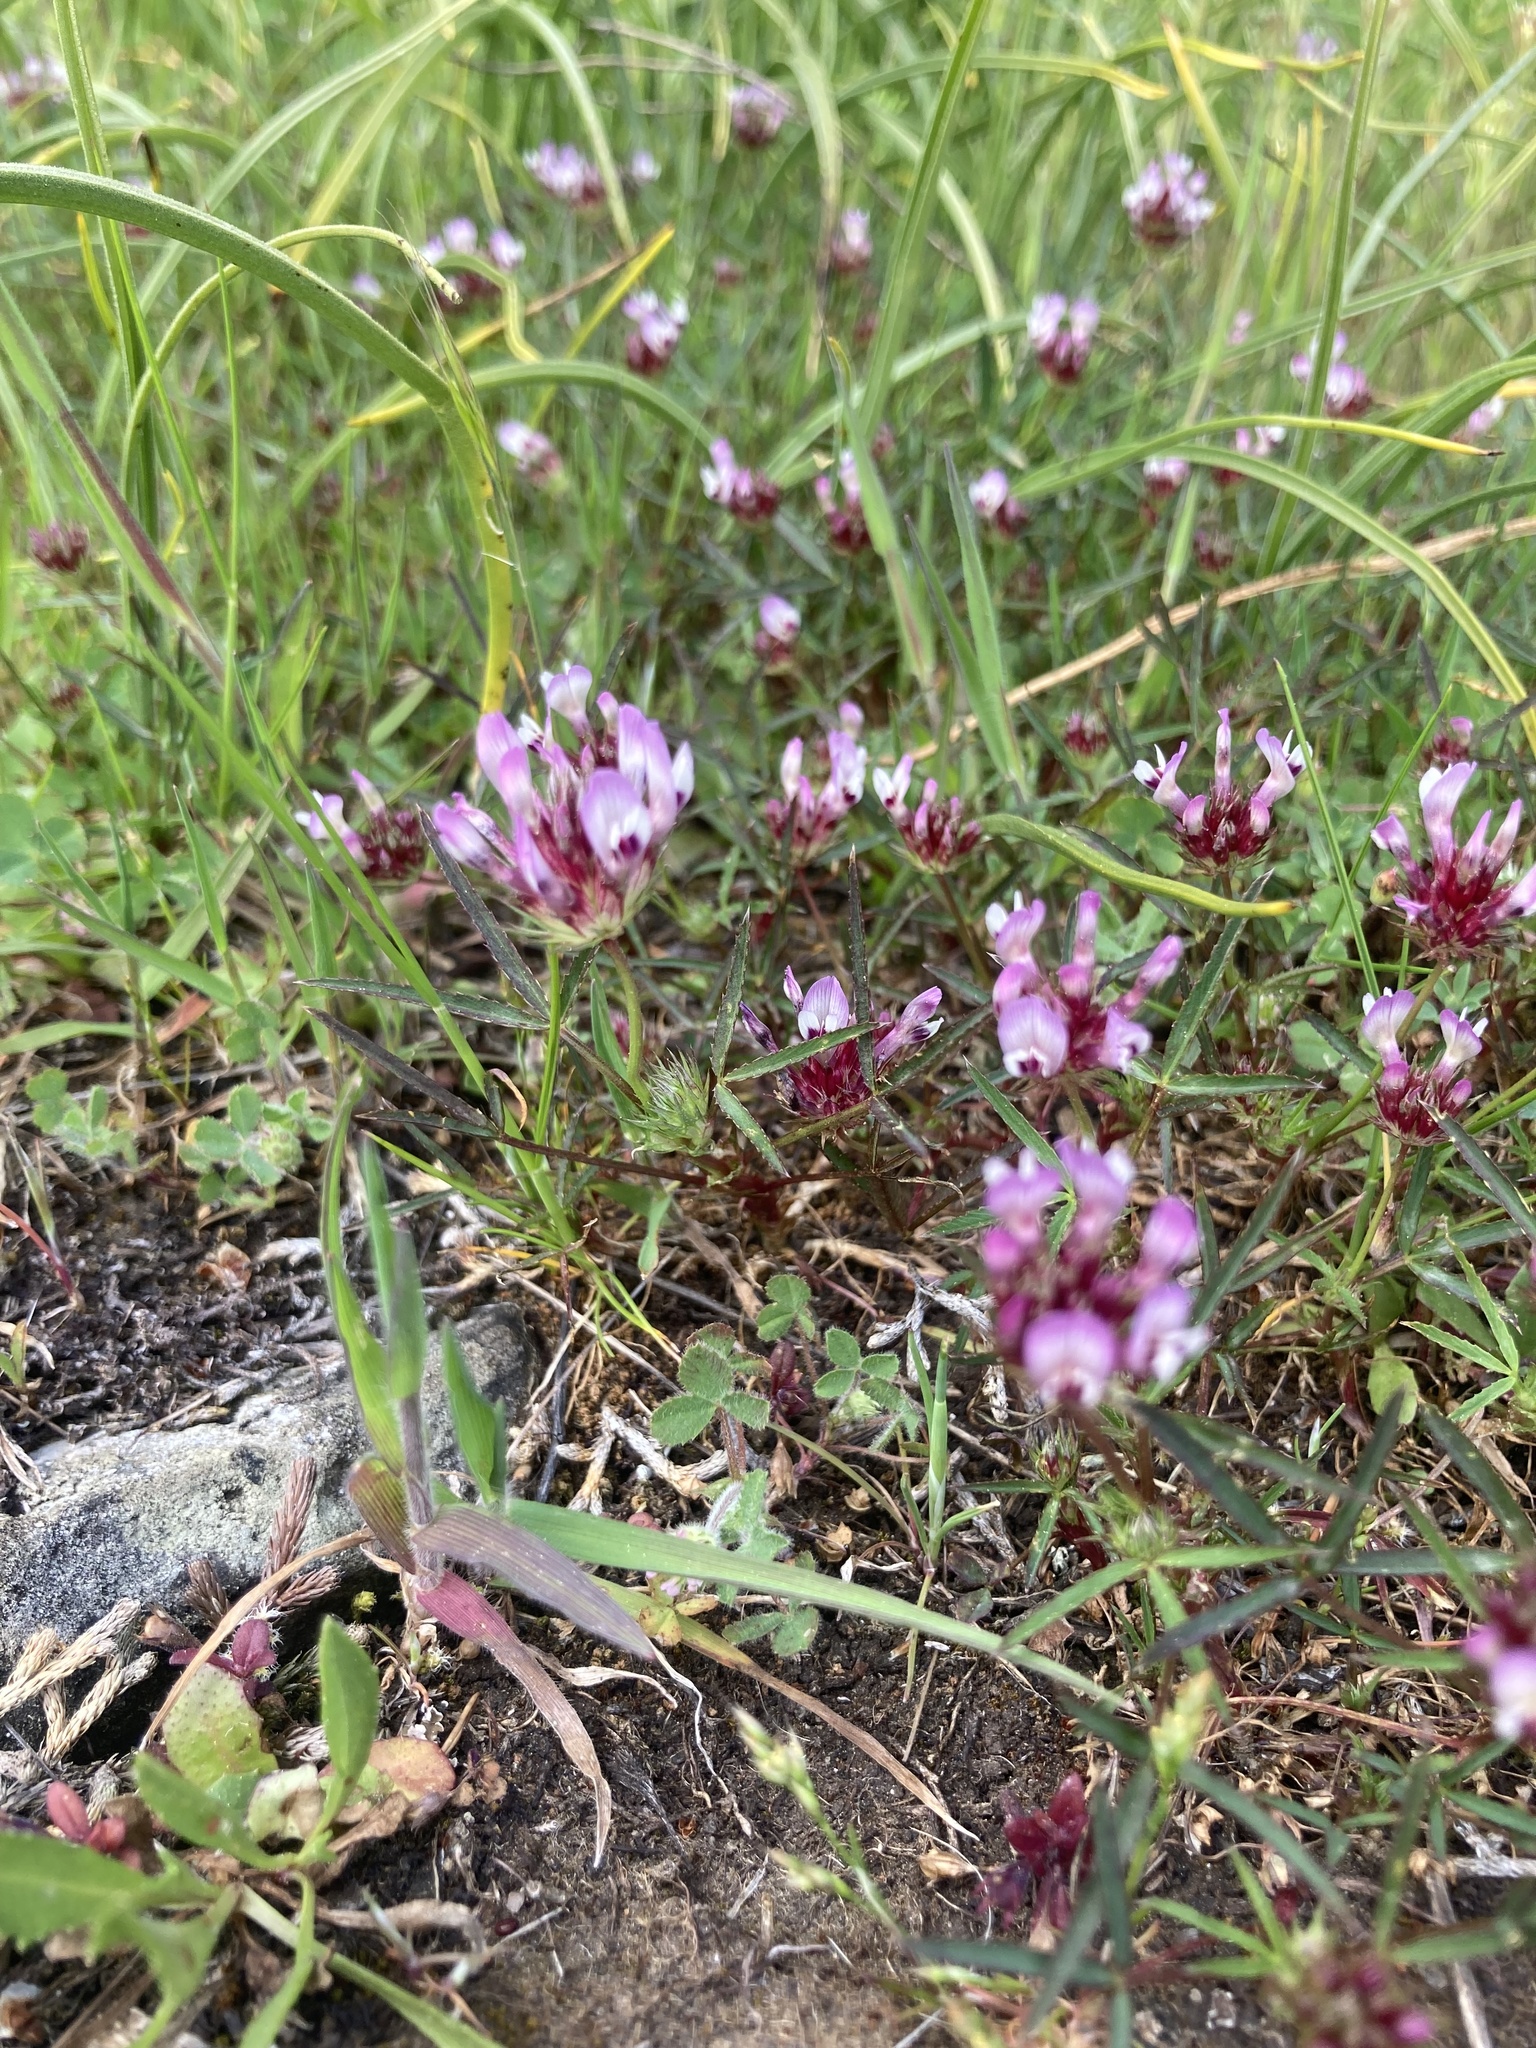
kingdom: Plantae
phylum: Tracheophyta
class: Magnoliopsida
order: Fabales
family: Fabaceae
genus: Trifolium
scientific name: Trifolium willdenovii
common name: Tomcat clover
